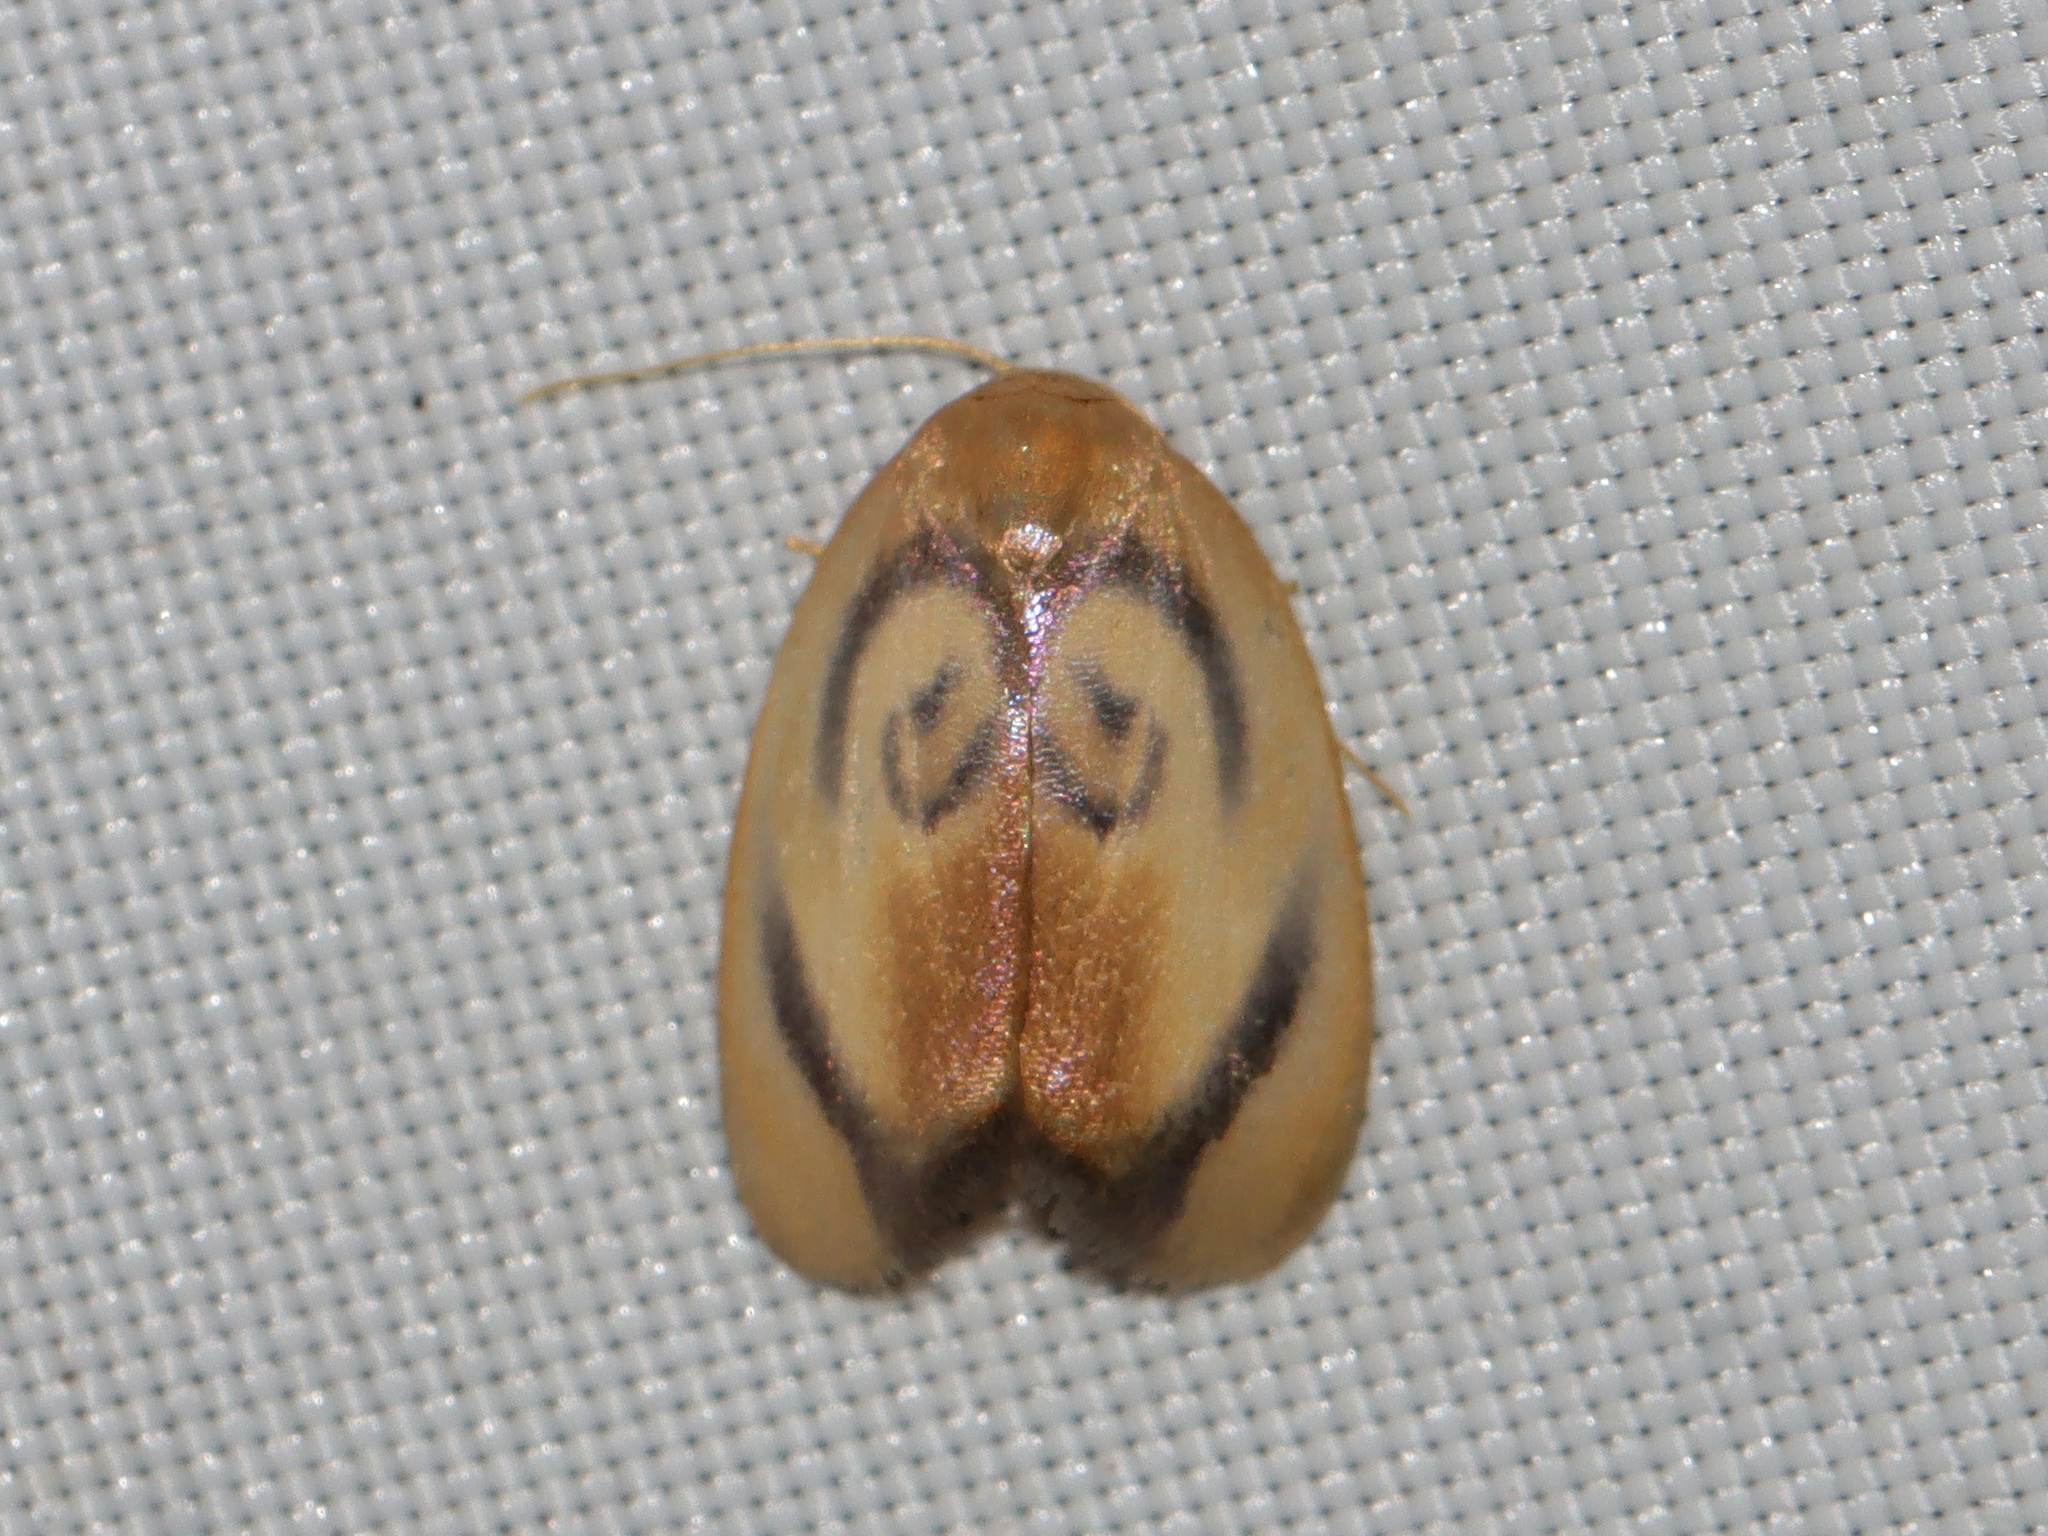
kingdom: Animalia
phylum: Arthropoda
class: Insecta
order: Lepidoptera
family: Erebidae
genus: Trischalis
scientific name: Trischalis subaurana
